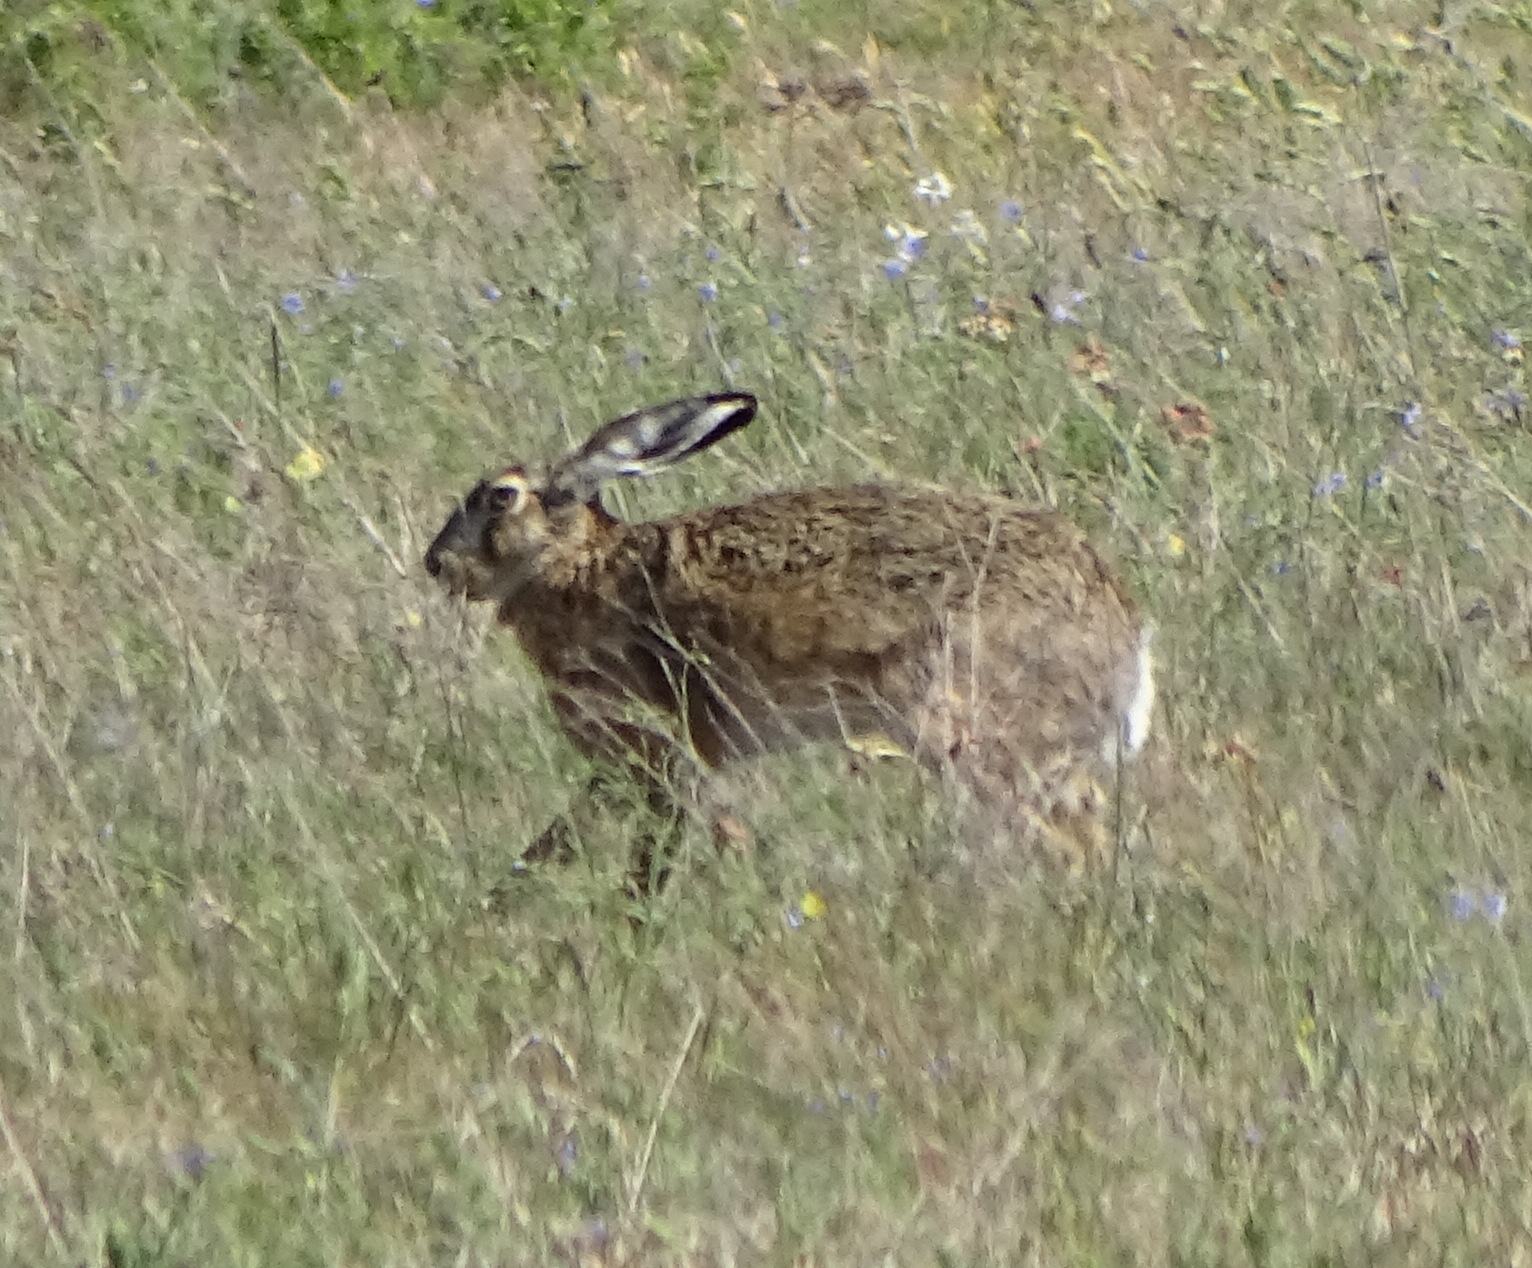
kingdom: Animalia
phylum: Chordata
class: Mammalia
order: Lagomorpha
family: Leporidae
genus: Lepus
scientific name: Lepus europaeus
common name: European hare
